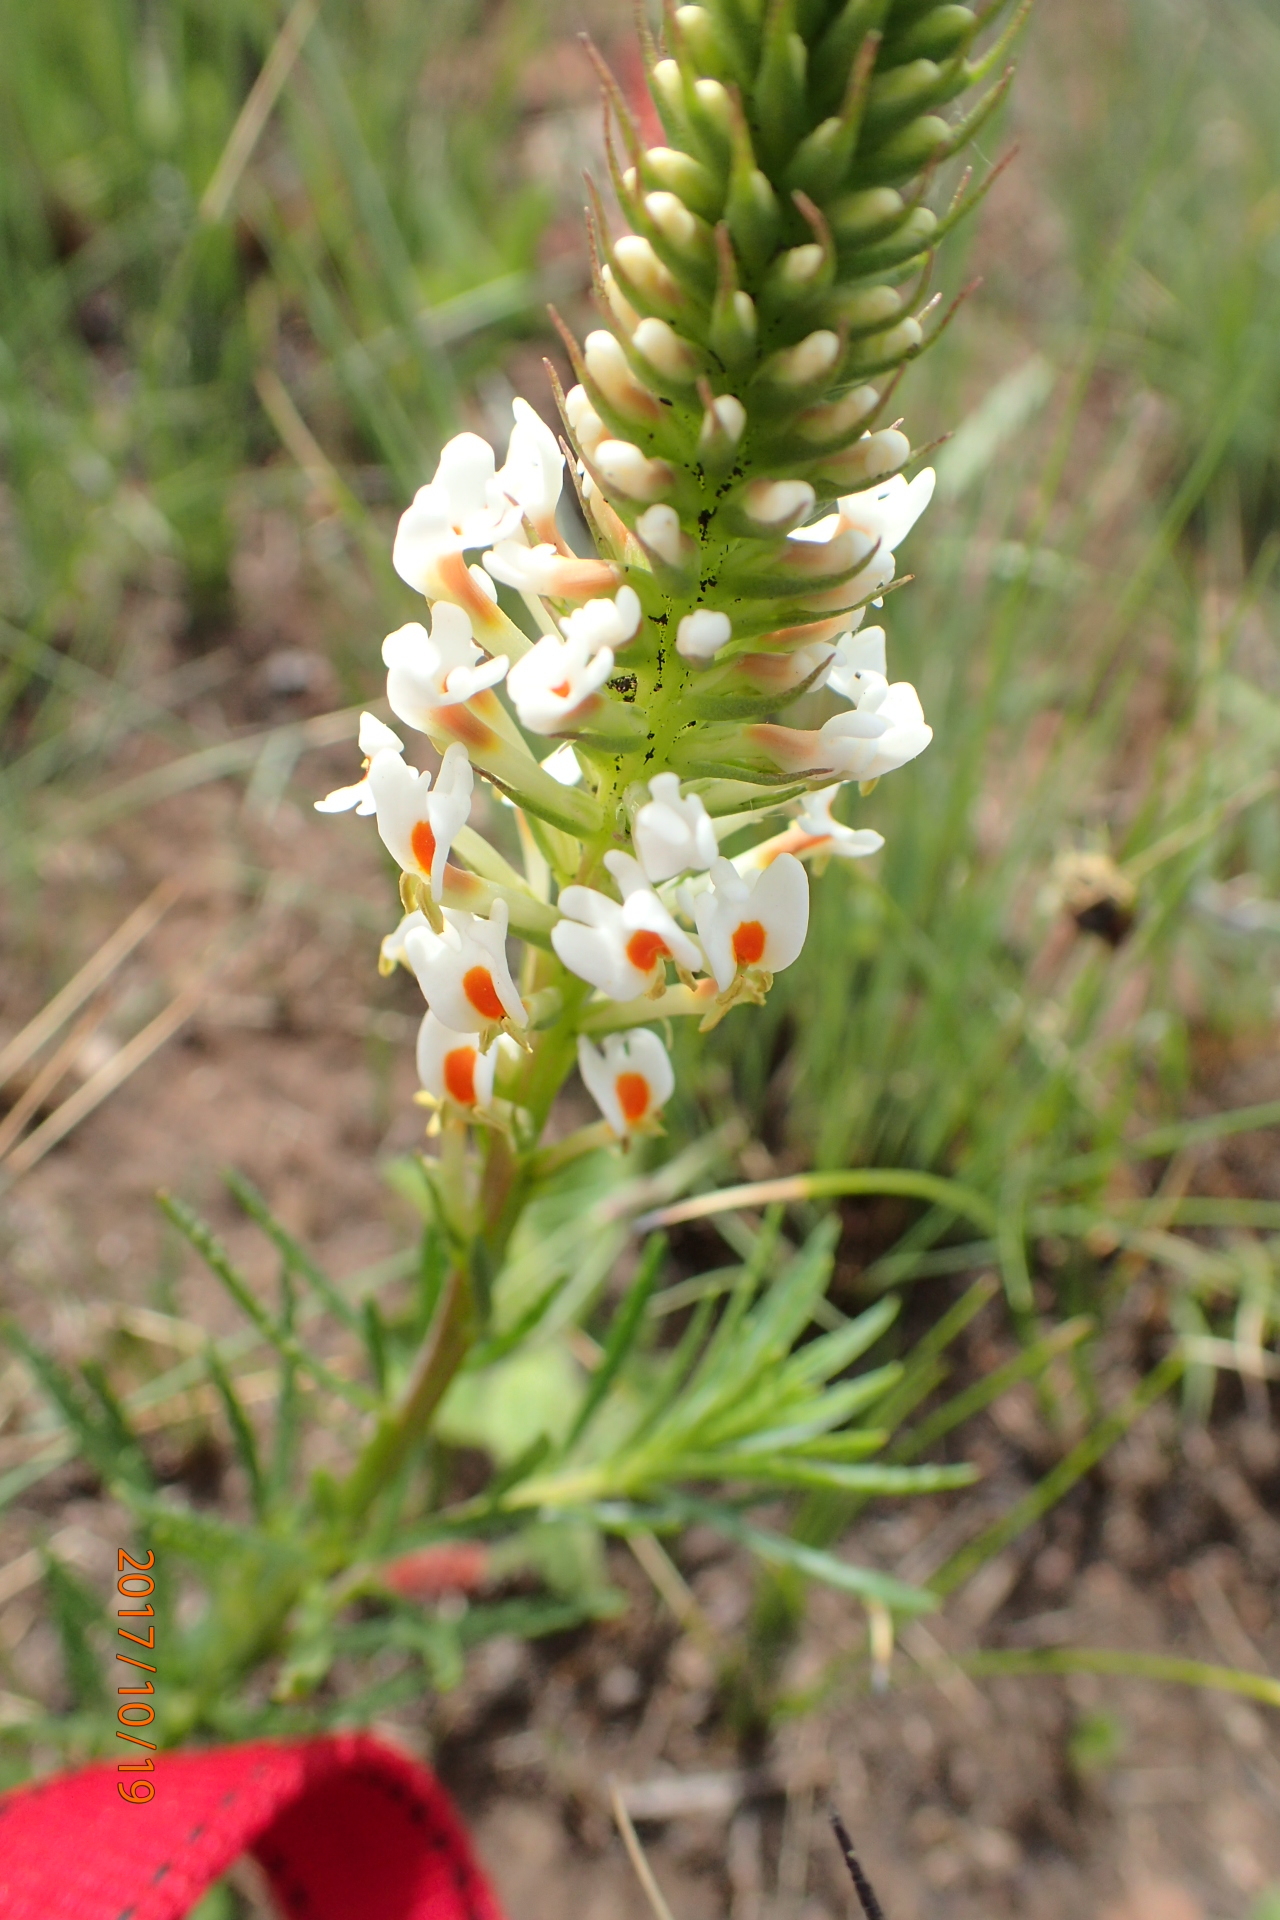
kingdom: Plantae
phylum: Tracheophyta
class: Magnoliopsida
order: Lamiales
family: Scrophulariaceae
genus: Hebenstretia
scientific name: Hebenstretia dura
